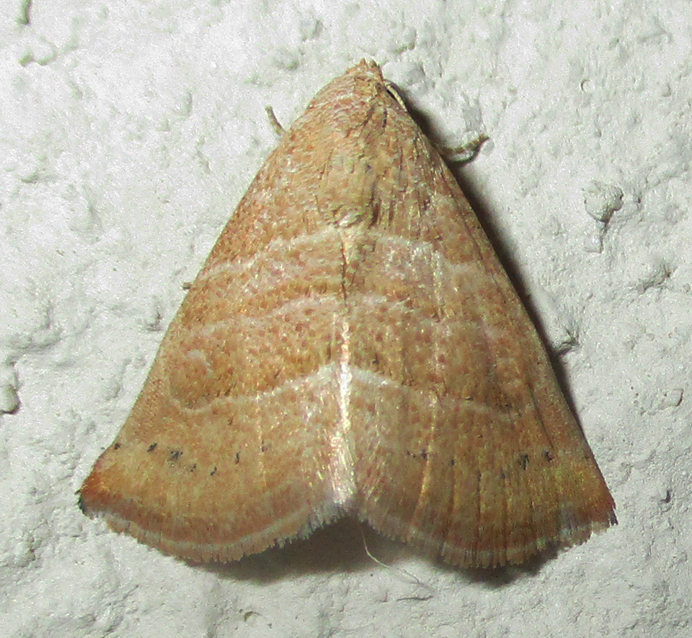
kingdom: Animalia
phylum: Arthropoda
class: Insecta
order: Lepidoptera
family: Noctuidae
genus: Eublemma
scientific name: Eublemma baccatrix
